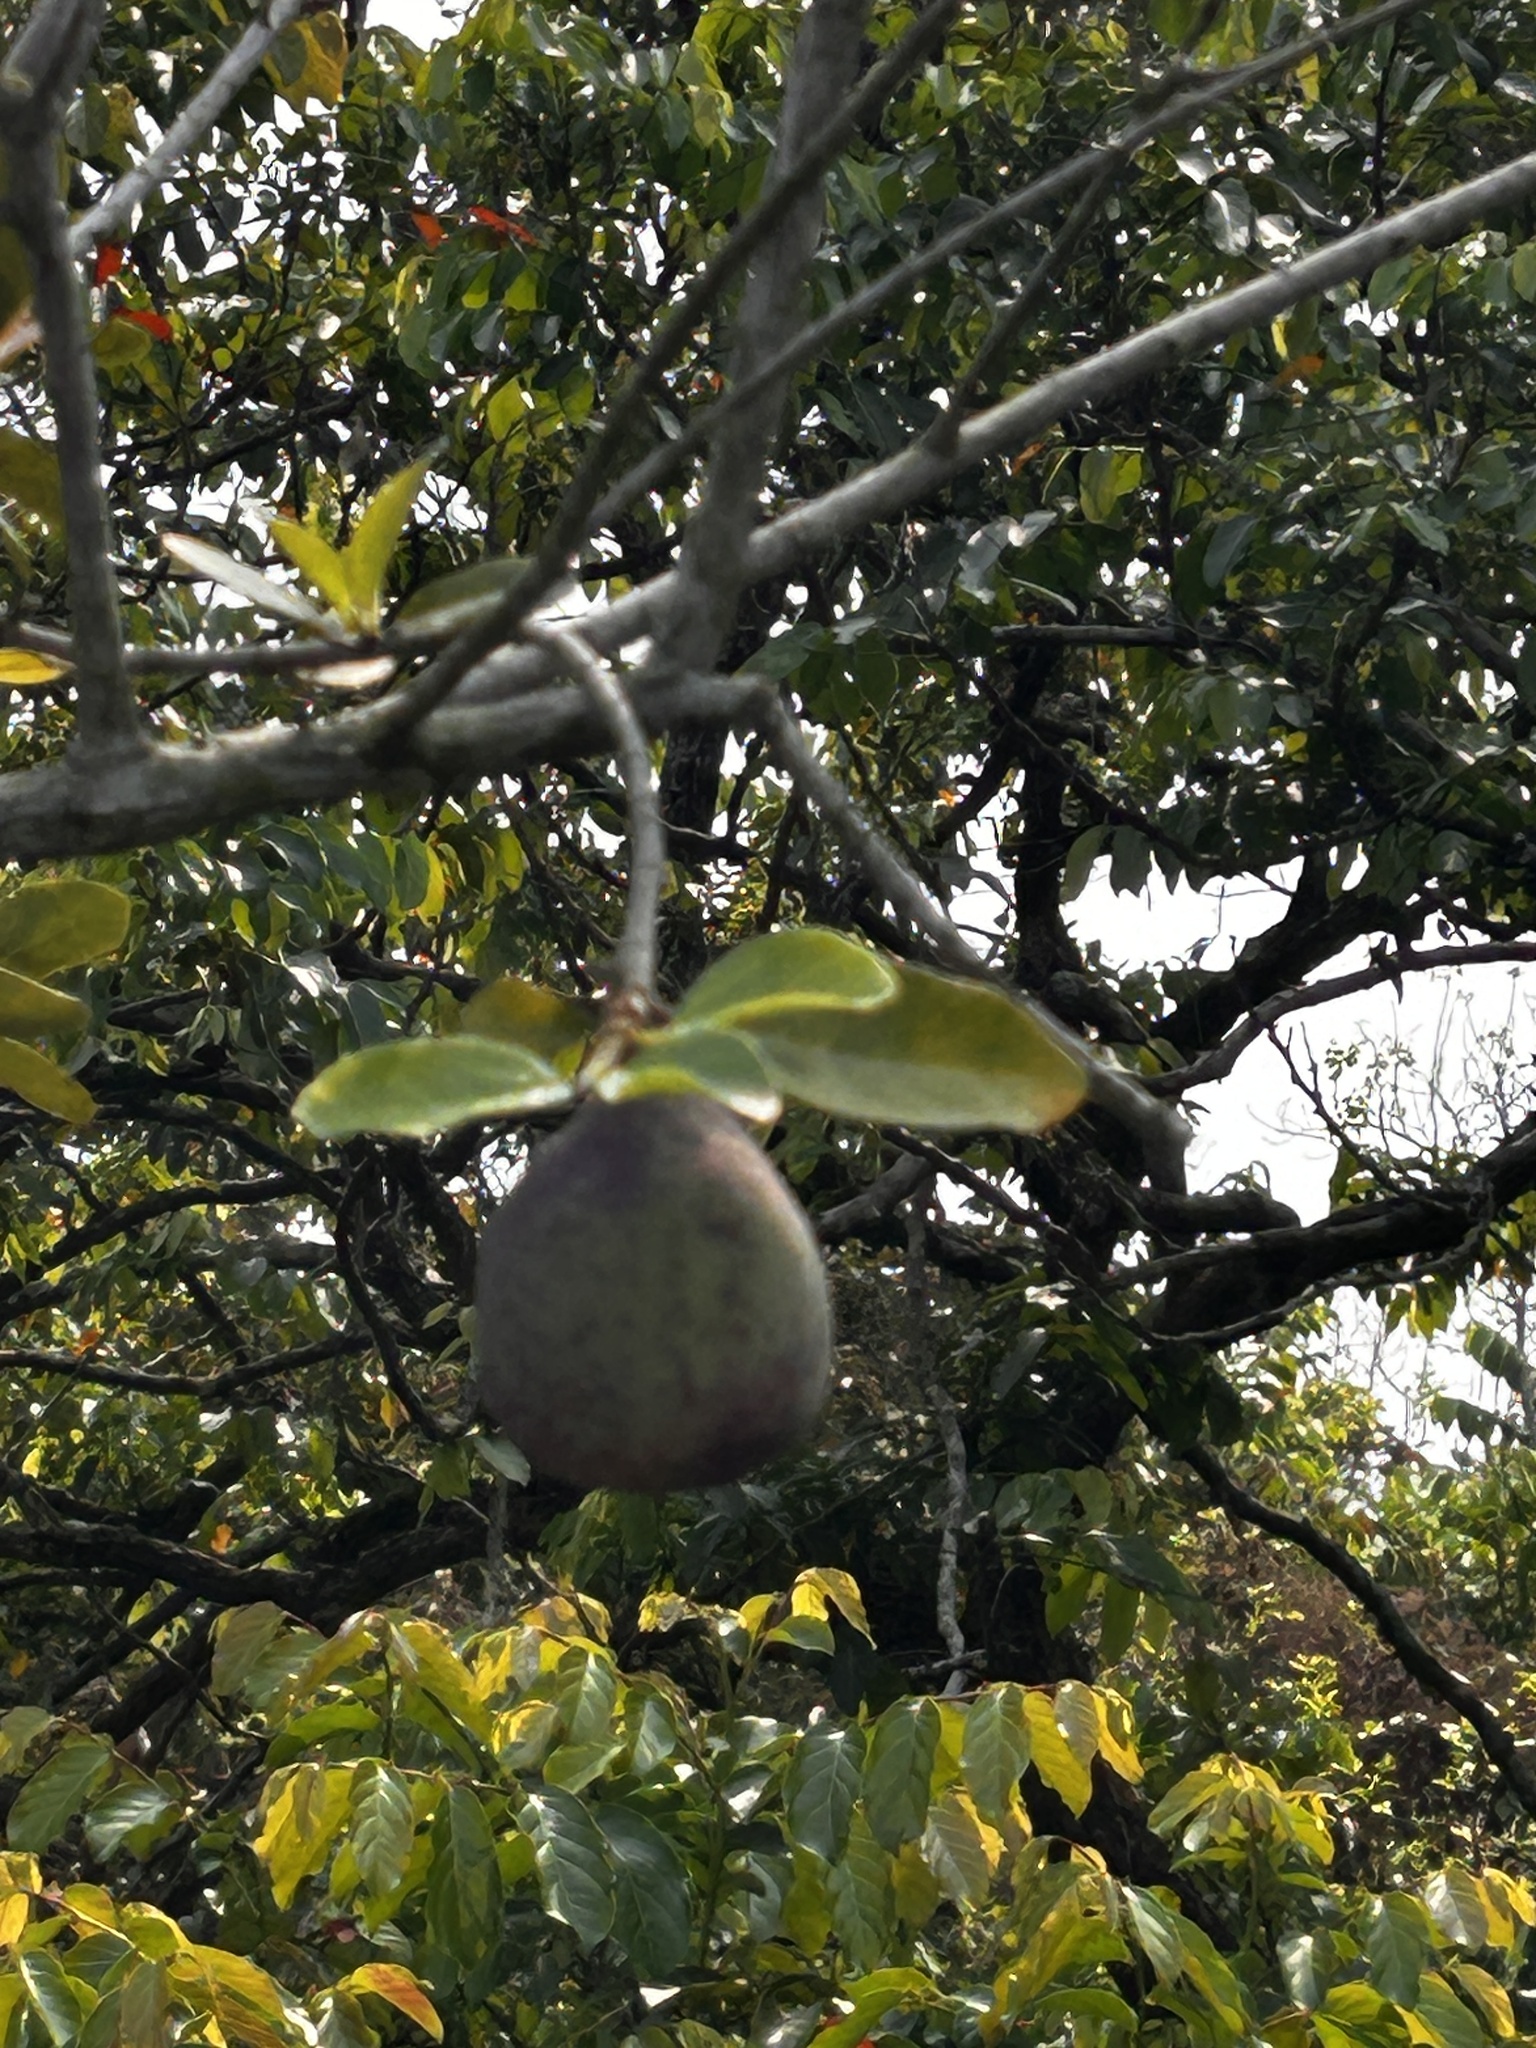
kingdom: Plantae
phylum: Tracheophyta
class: Magnoliopsida
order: Rosales
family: Moraceae
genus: Ficus
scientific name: Ficus pumila
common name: Climbingfig
